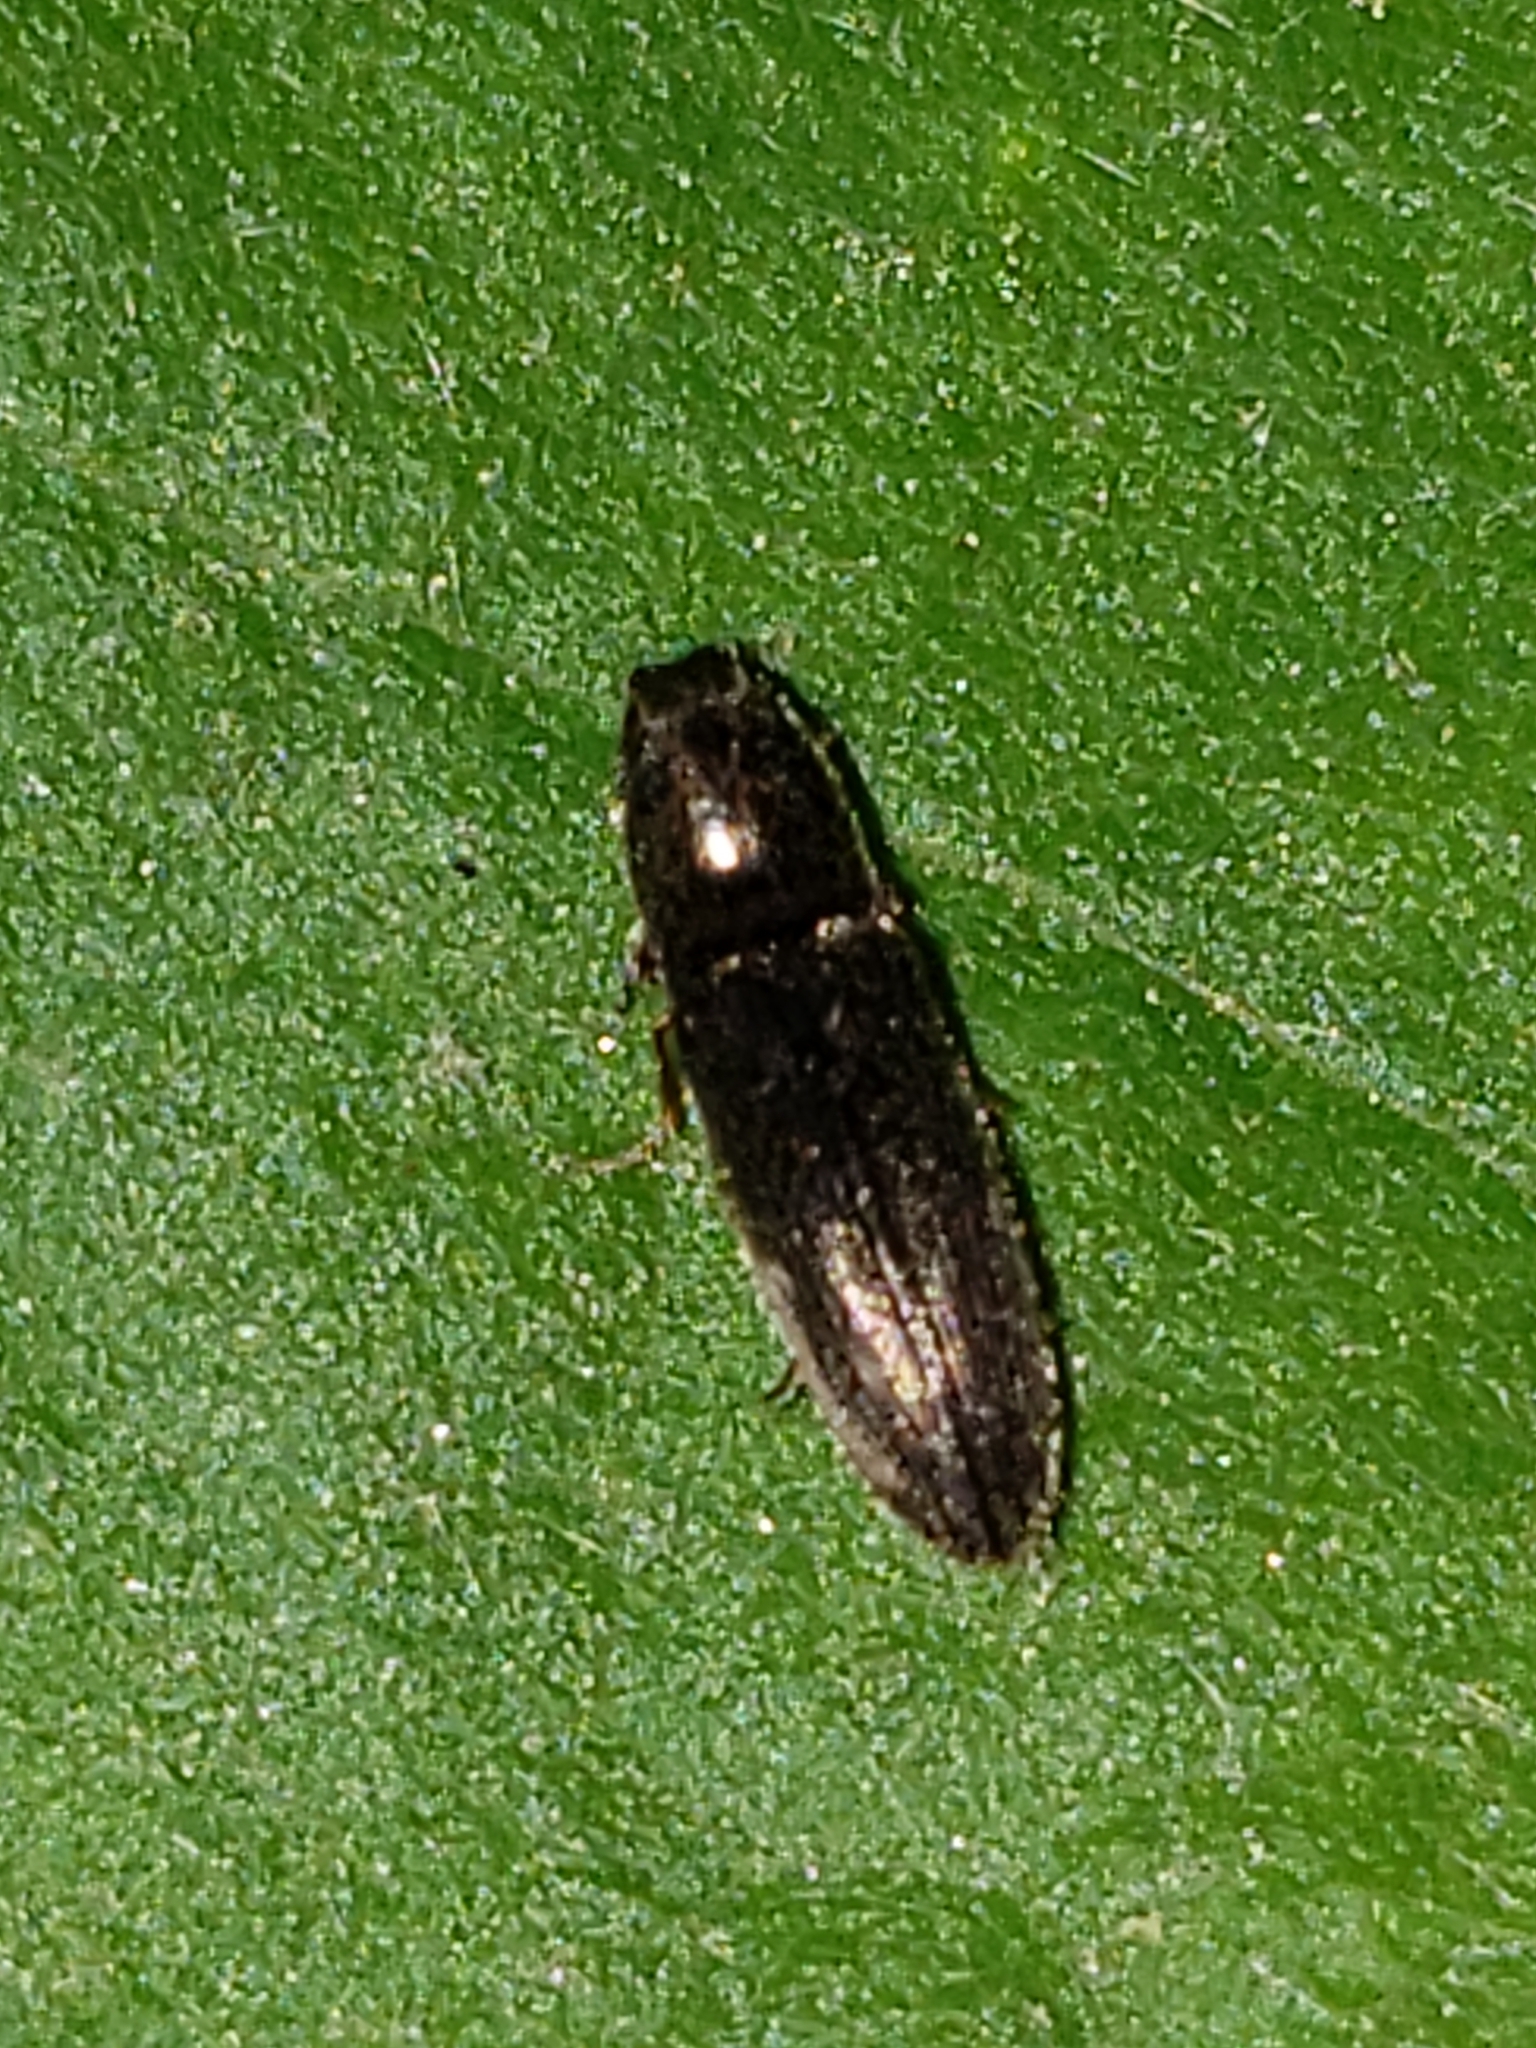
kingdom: Animalia
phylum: Arthropoda
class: Insecta
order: Coleoptera
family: Elateridae
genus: Limonius
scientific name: Limonius quercinus
